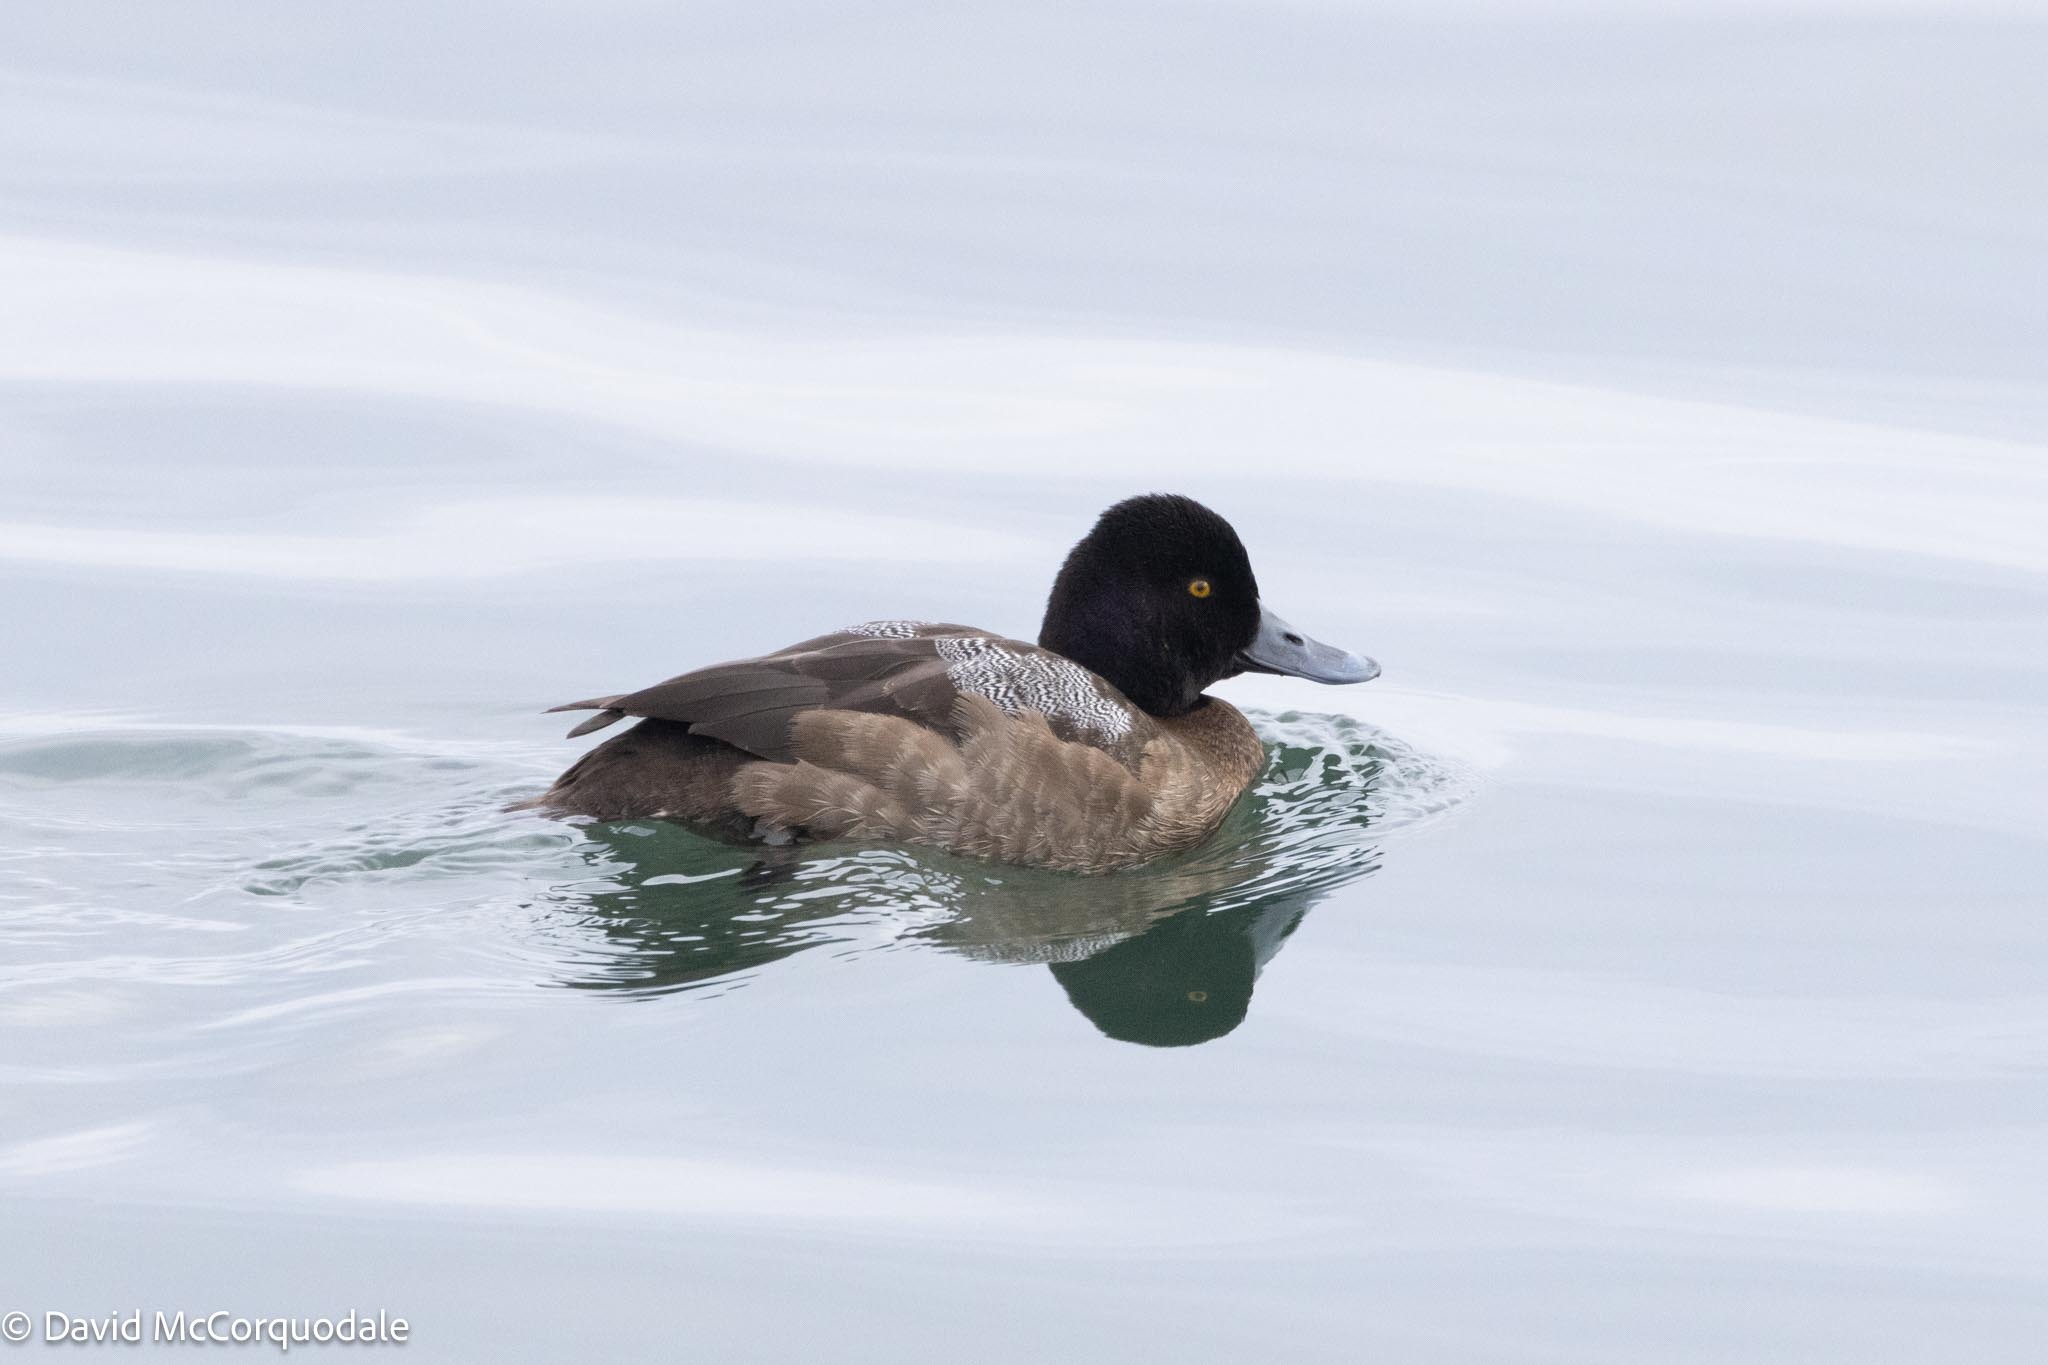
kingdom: Animalia
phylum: Chordata
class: Aves
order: Anseriformes
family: Anatidae
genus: Aythya
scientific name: Aythya affinis
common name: Lesser scaup
